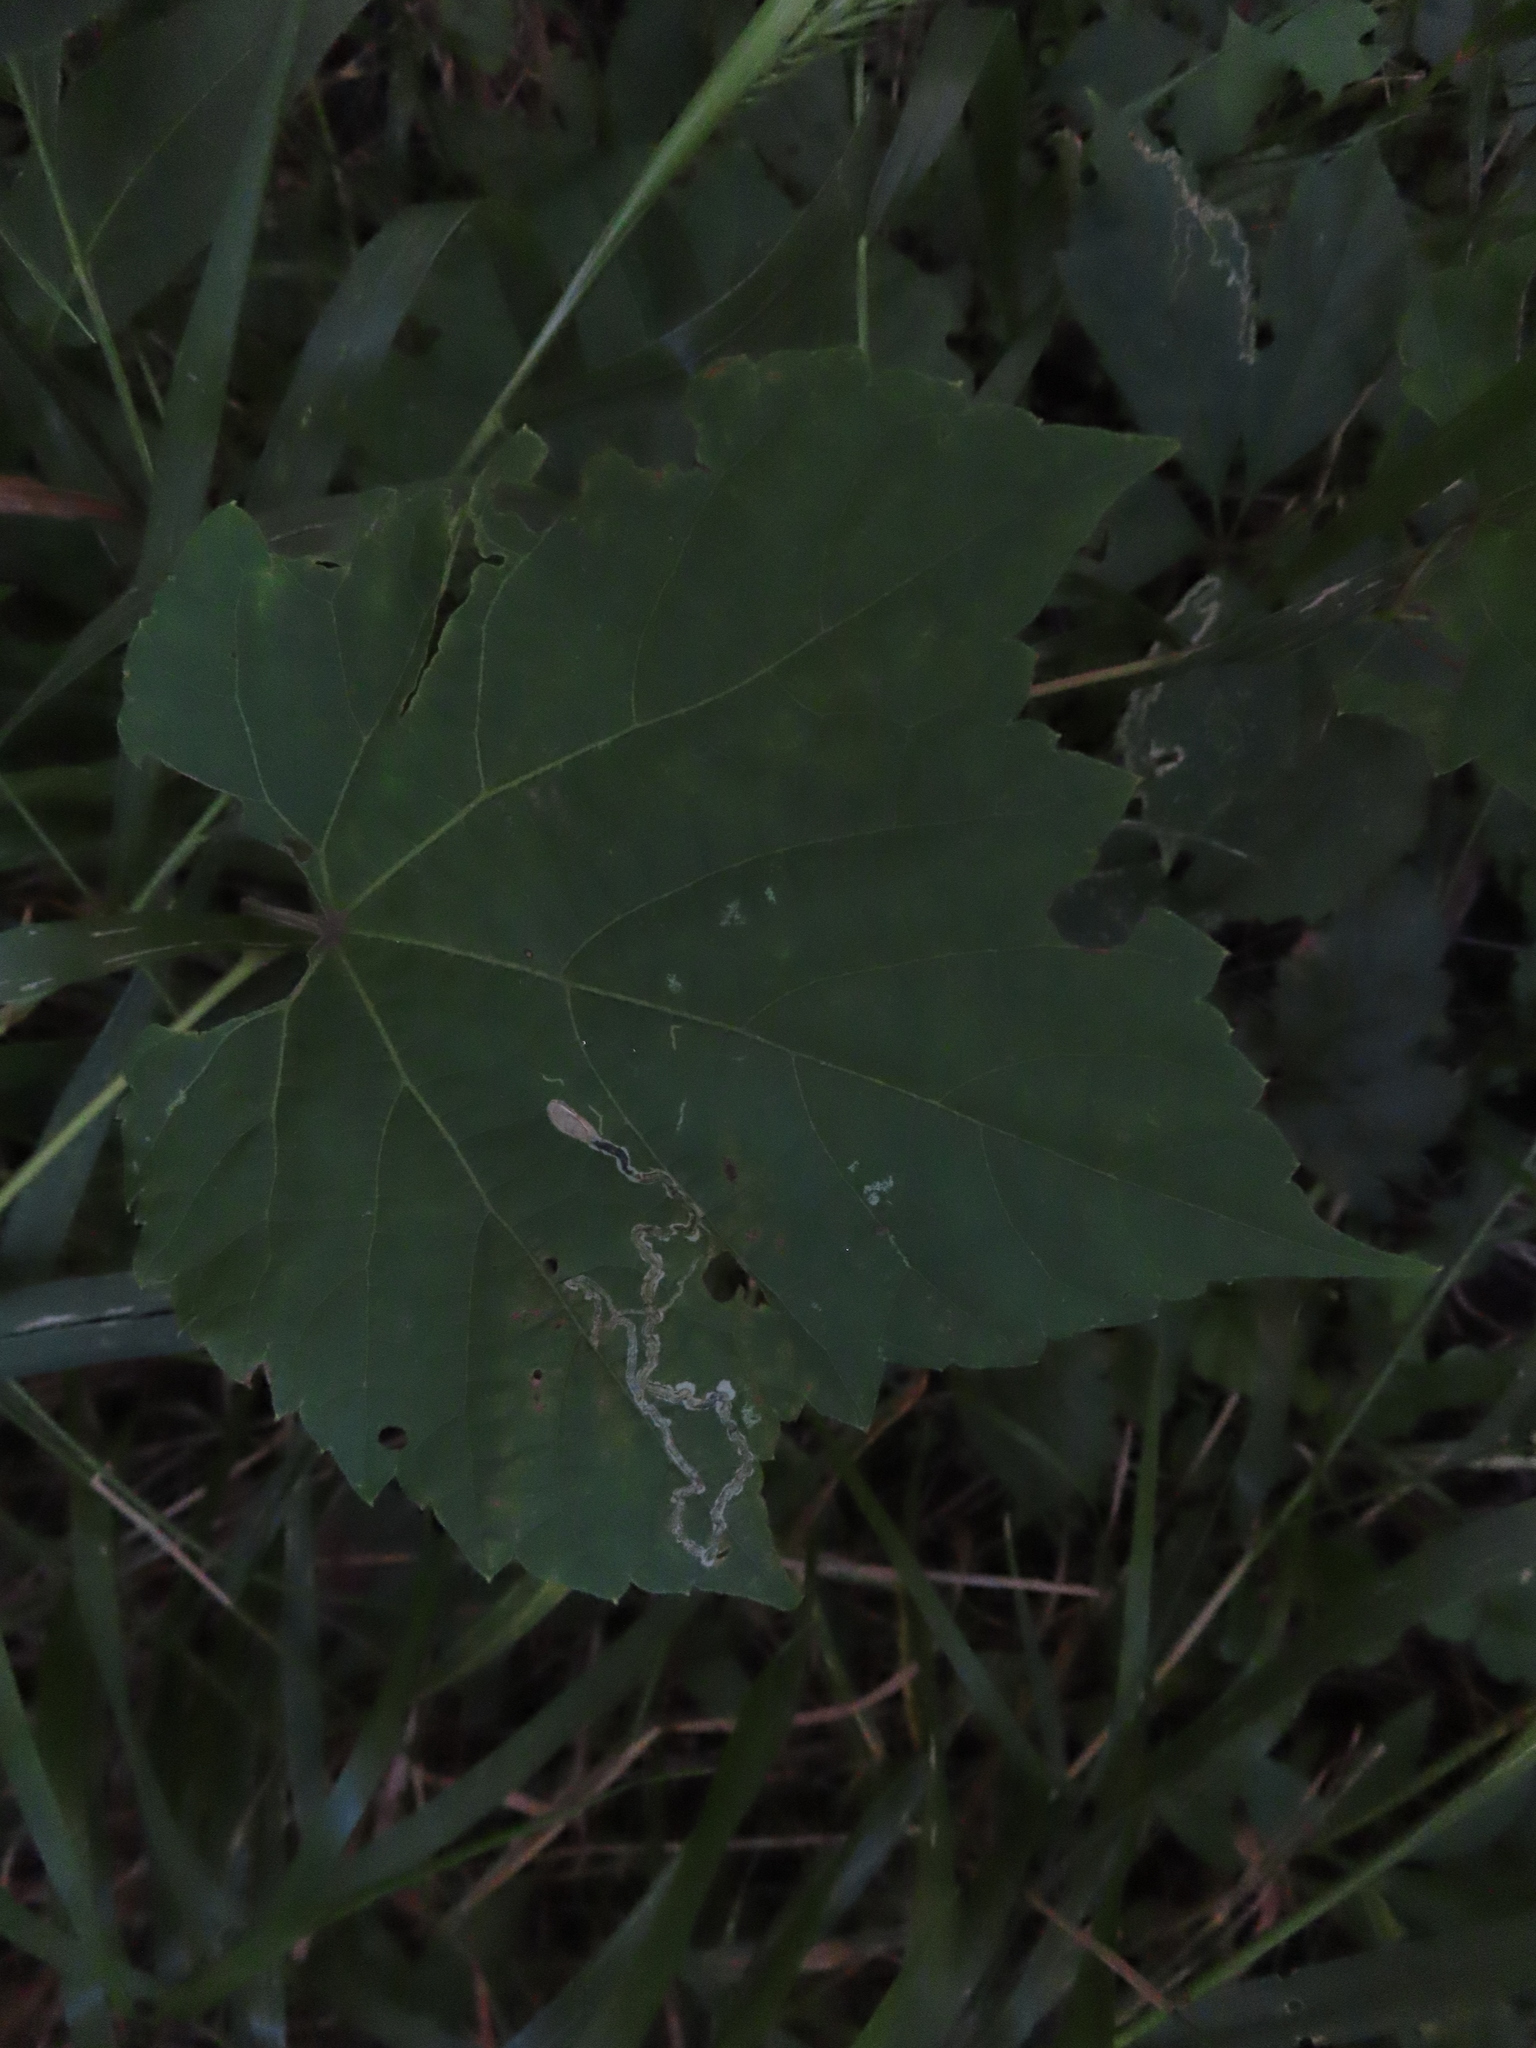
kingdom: Animalia
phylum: Arthropoda
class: Insecta
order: Lepidoptera
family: Gracillariidae
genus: Phyllocnistis
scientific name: Phyllocnistis vitifoliella
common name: Grape leaf-miner moth
